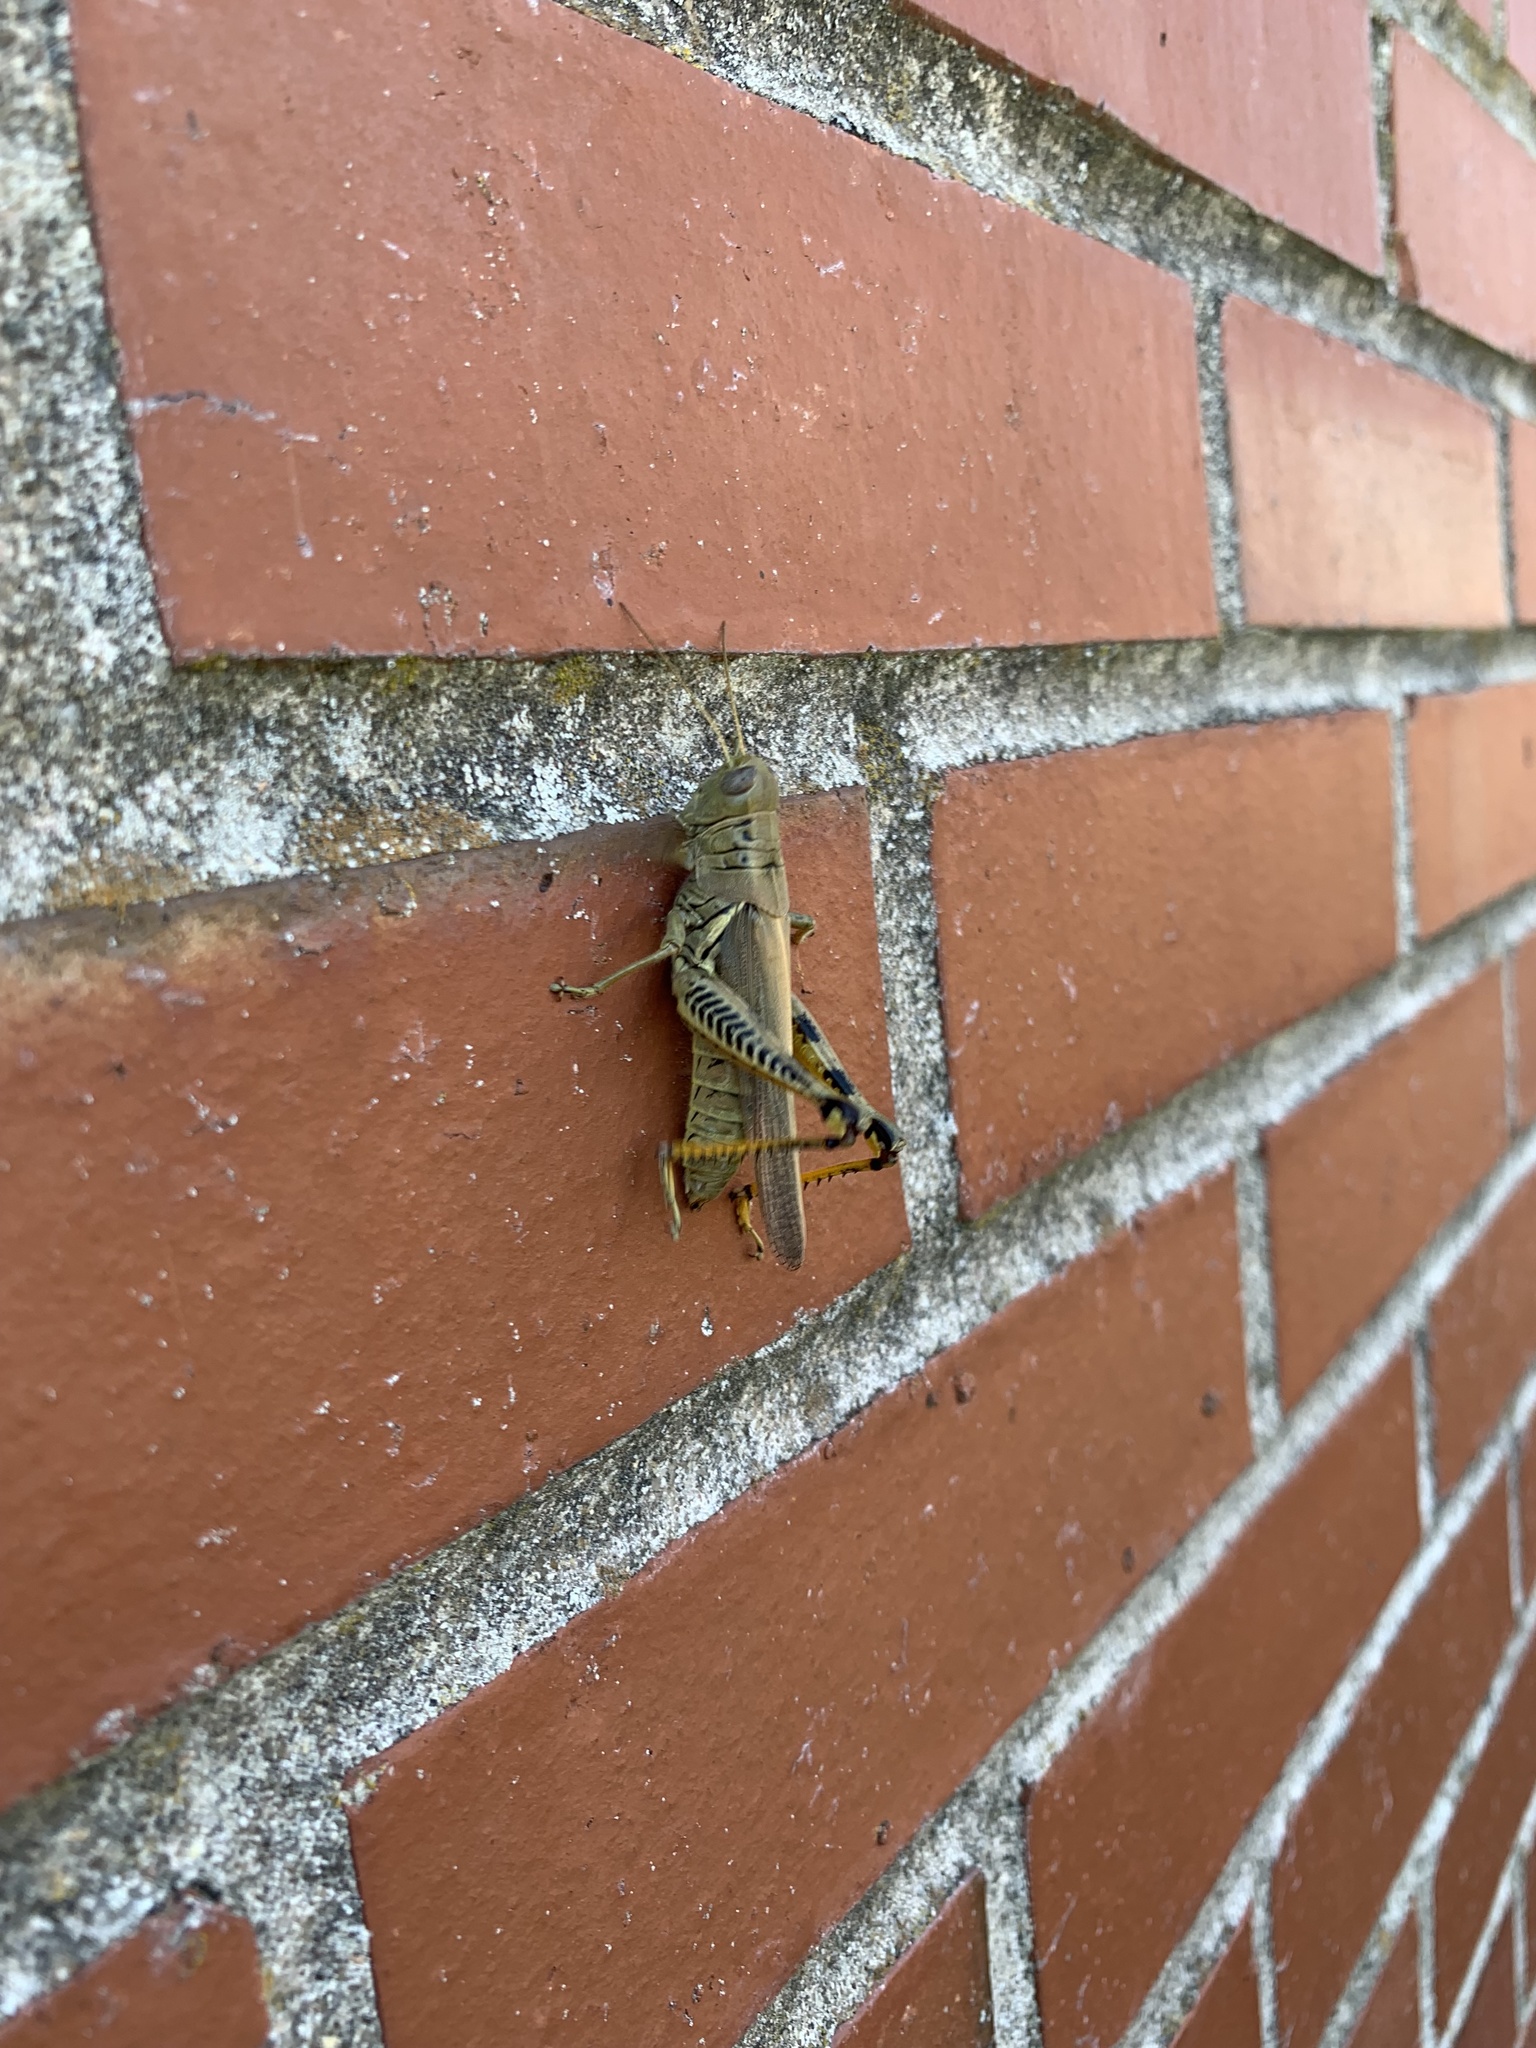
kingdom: Animalia
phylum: Arthropoda
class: Insecta
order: Orthoptera
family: Acrididae
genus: Melanoplus
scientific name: Melanoplus differentialis
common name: Differential grasshopper
